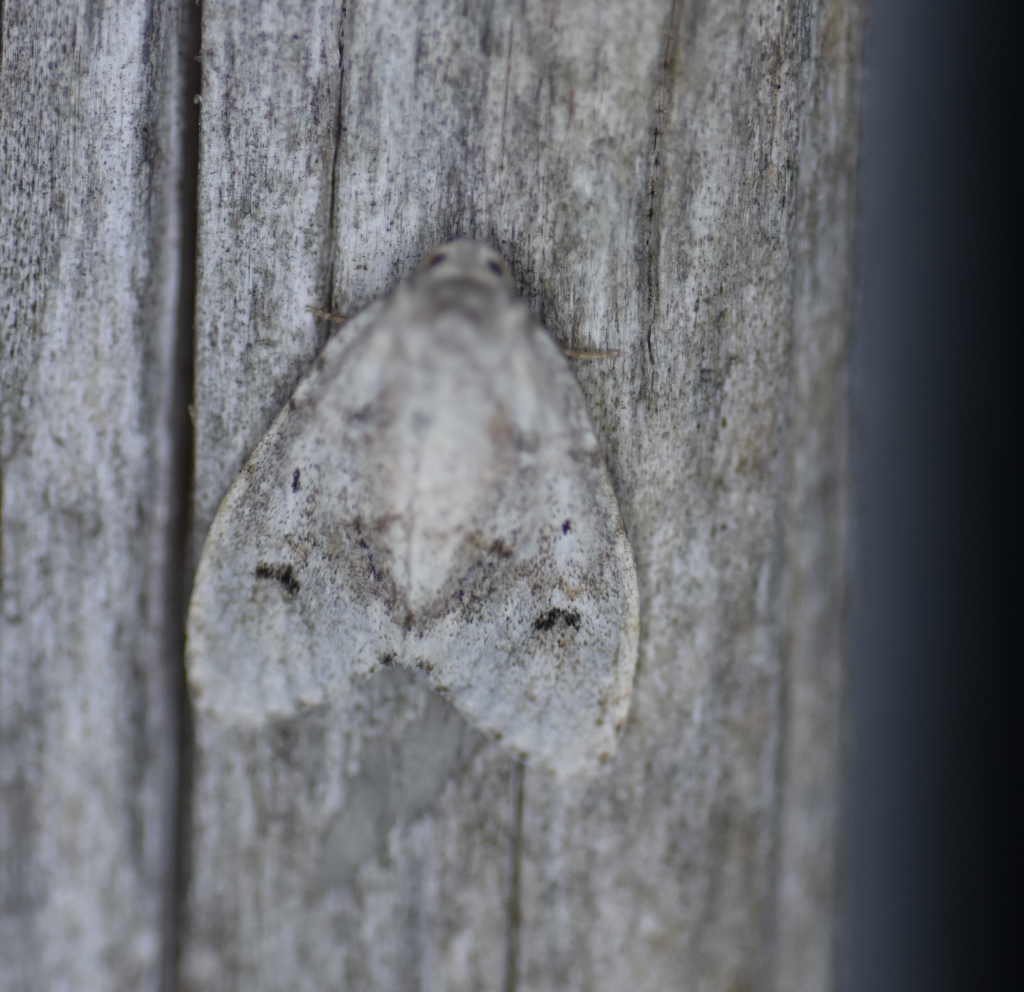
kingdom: Animalia
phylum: Arthropoda
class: Insecta
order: Lepidoptera
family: Erebidae
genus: Clemensia
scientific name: Clemensia albata
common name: Little white lichen moth
